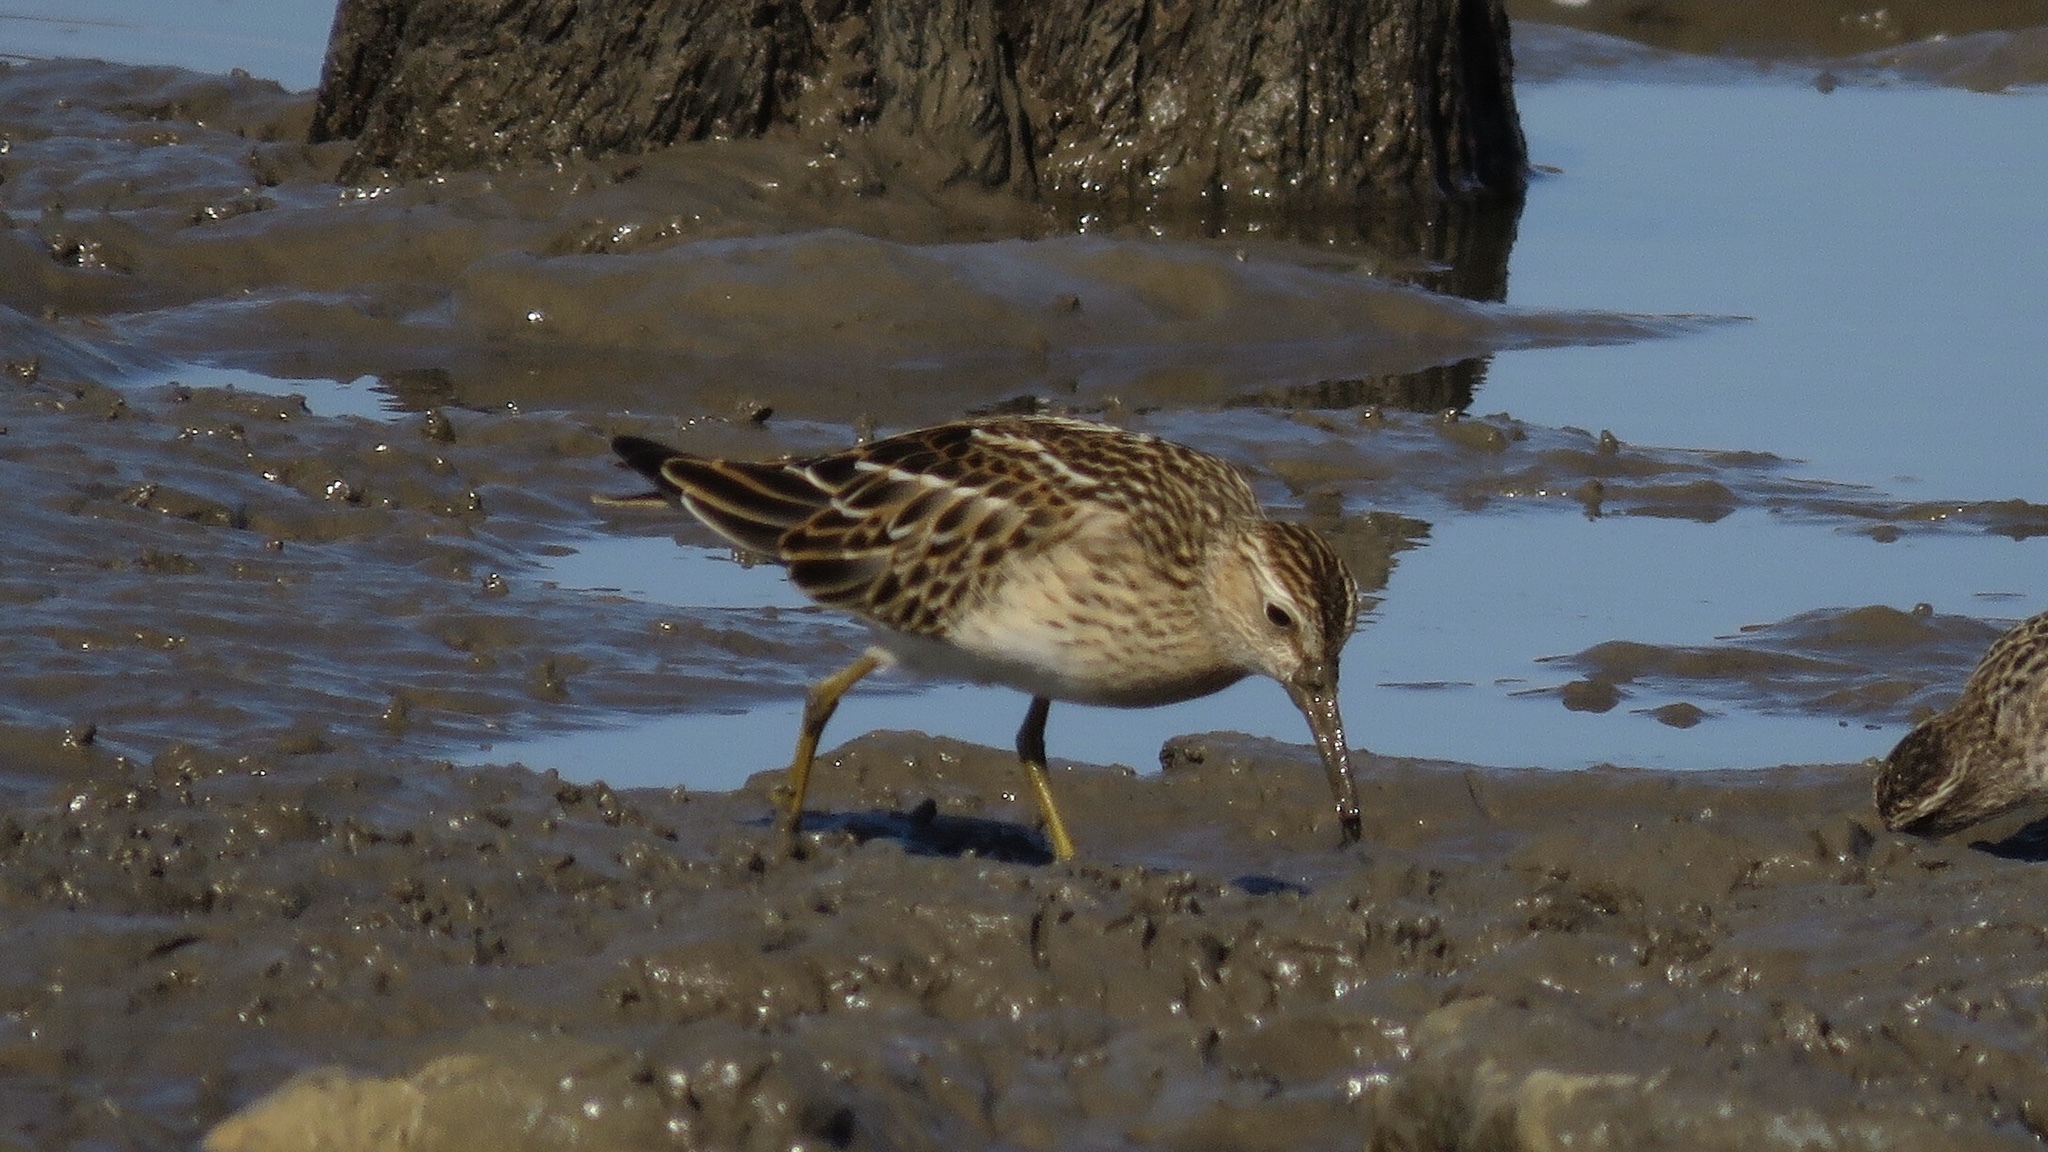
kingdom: Animalia
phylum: Chordata
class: Aves
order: Charadriiformes
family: Scolopacidae
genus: Calidris
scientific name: Calidris melanotos
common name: Pectoral sandpiper
